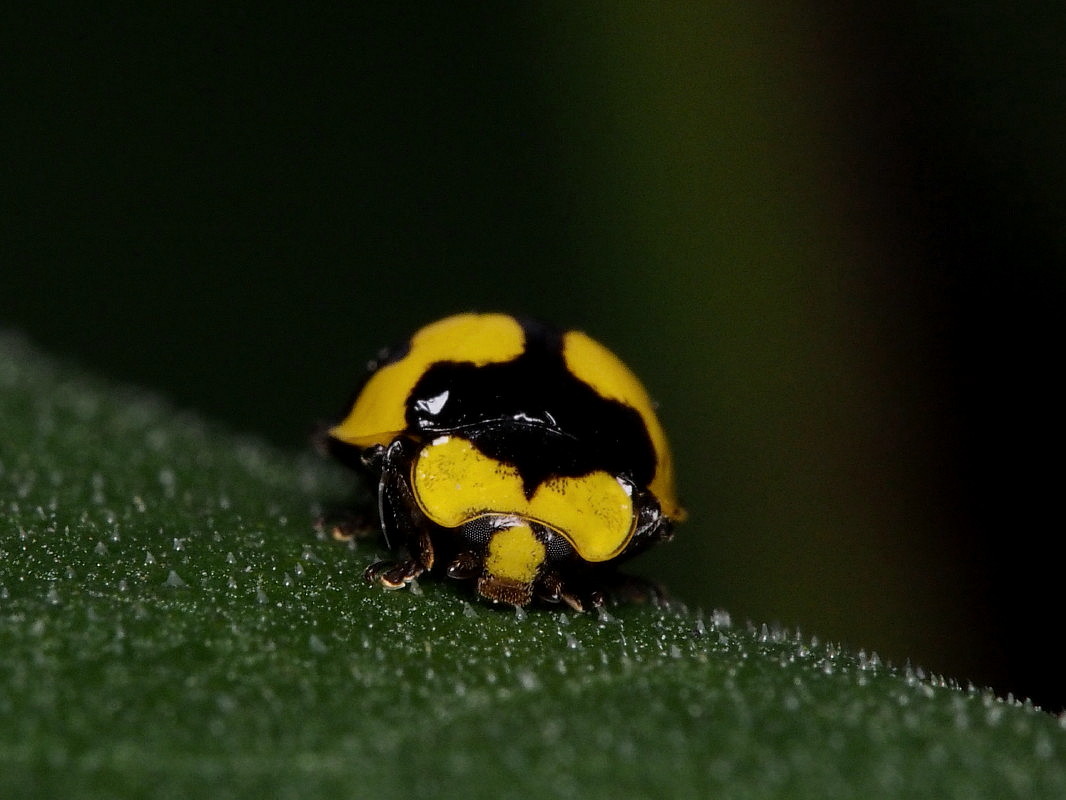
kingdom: Animalia
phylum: Arthropoda
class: Insecta
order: Coleoptera
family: Coccinellidae
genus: Illeis
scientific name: Illeis galbula
